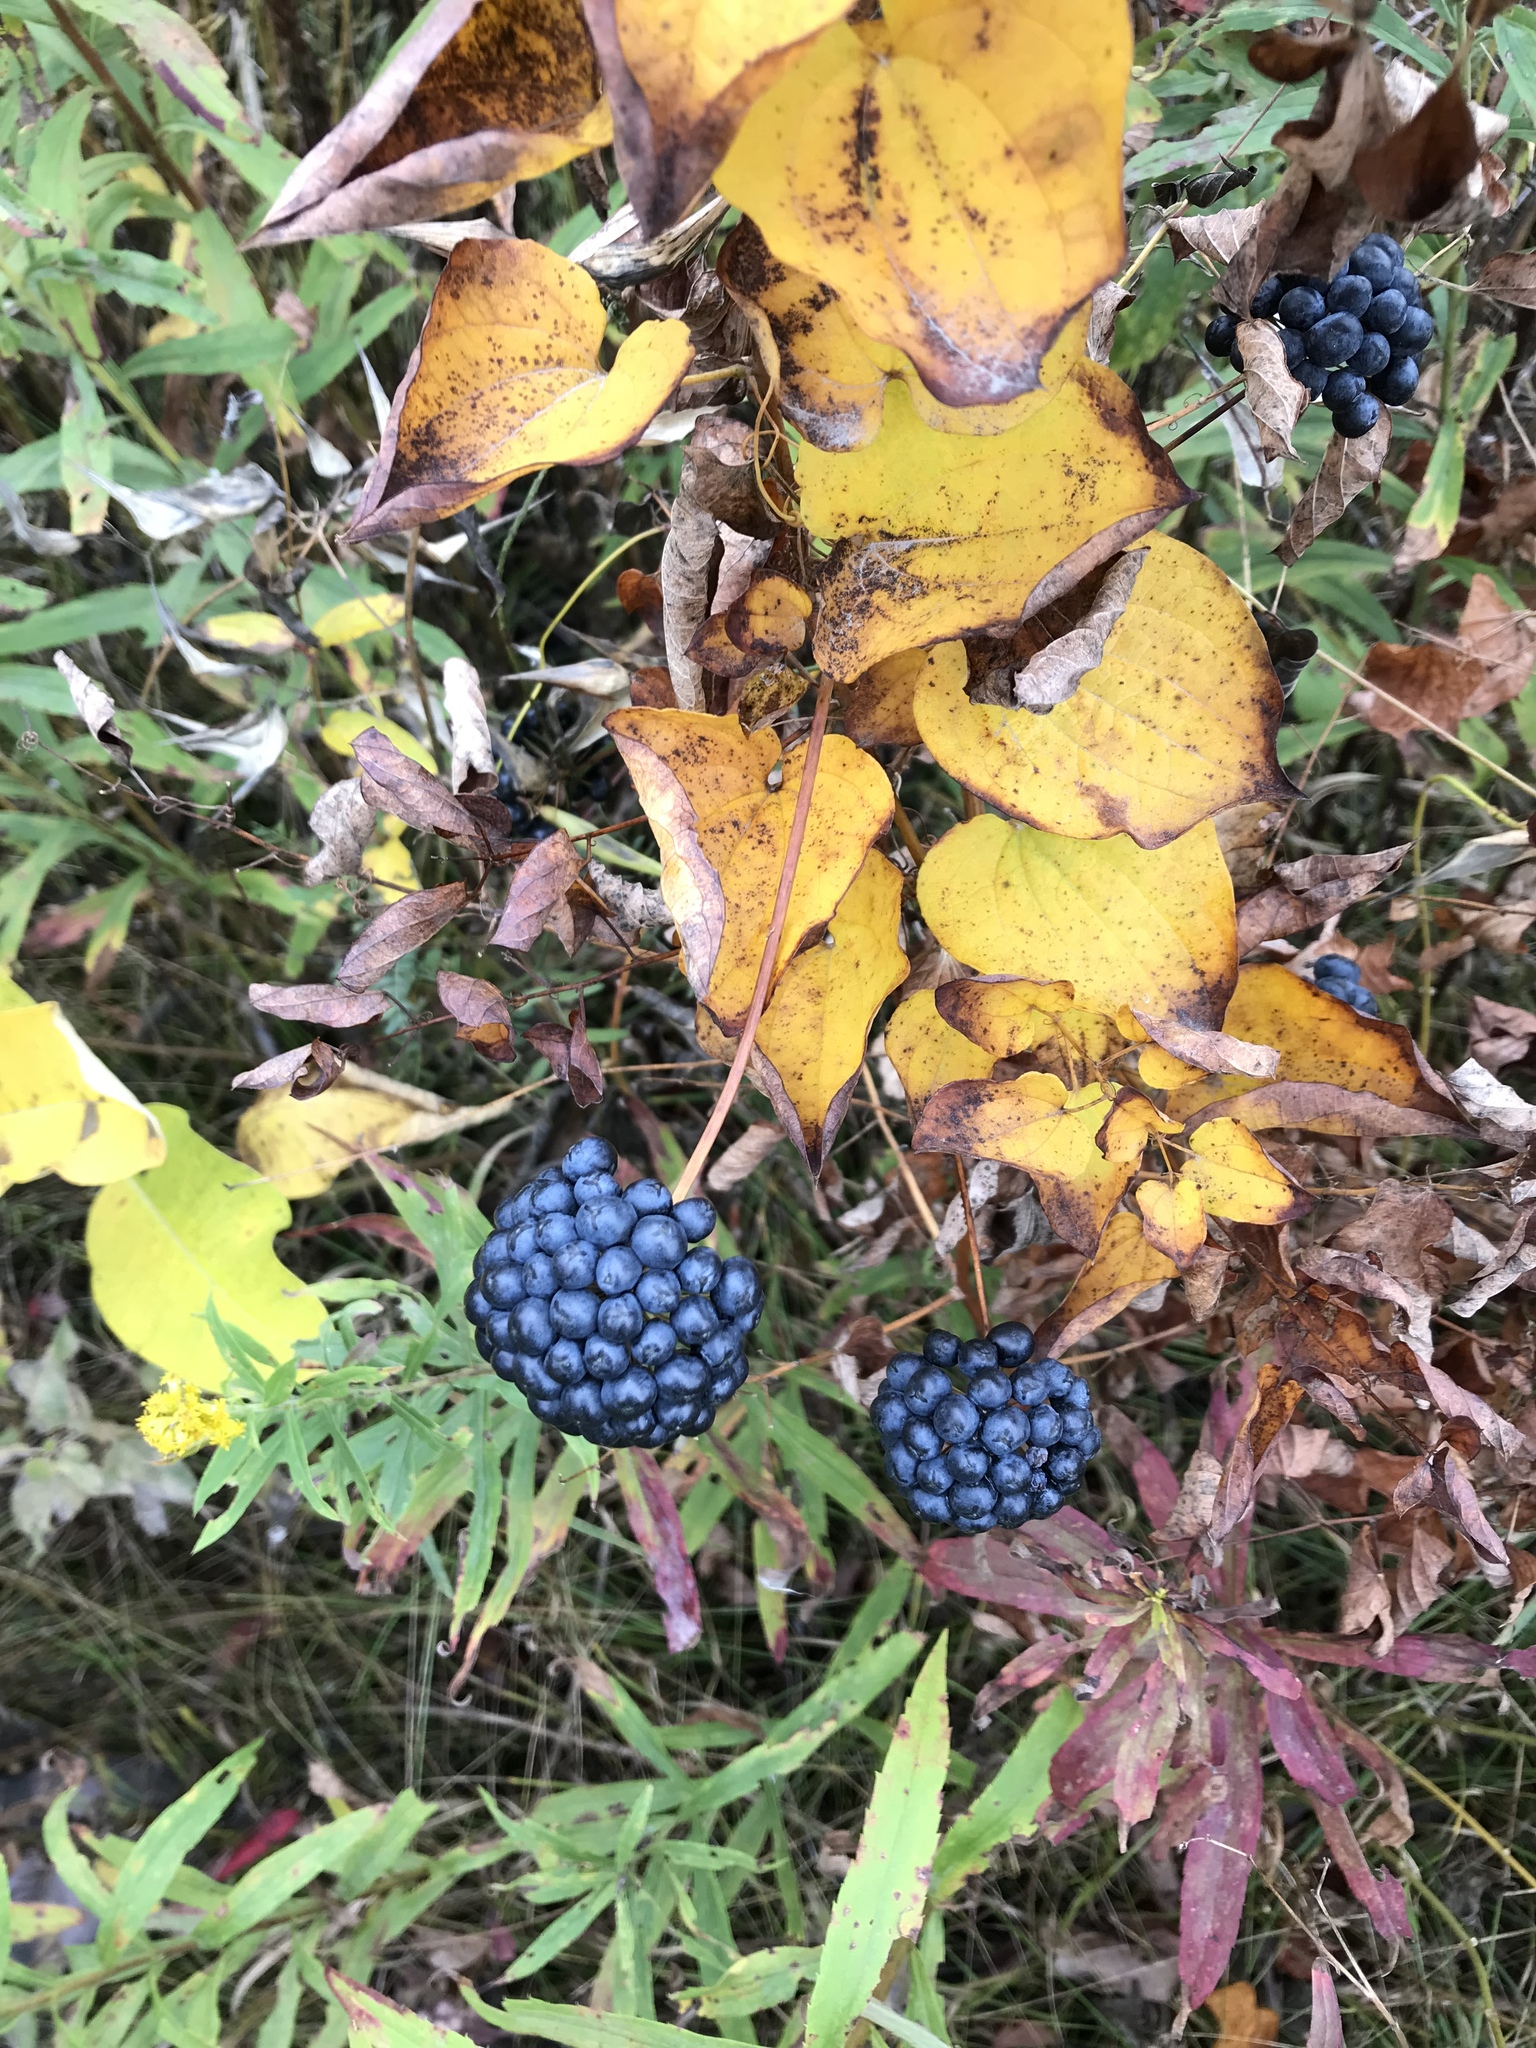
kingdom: Plantae
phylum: Tracheophyta
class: Liliopsida
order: Liliales
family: Smilacaceae
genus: Smilax
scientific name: Smilax herbacea
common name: Jacob's-ladder
